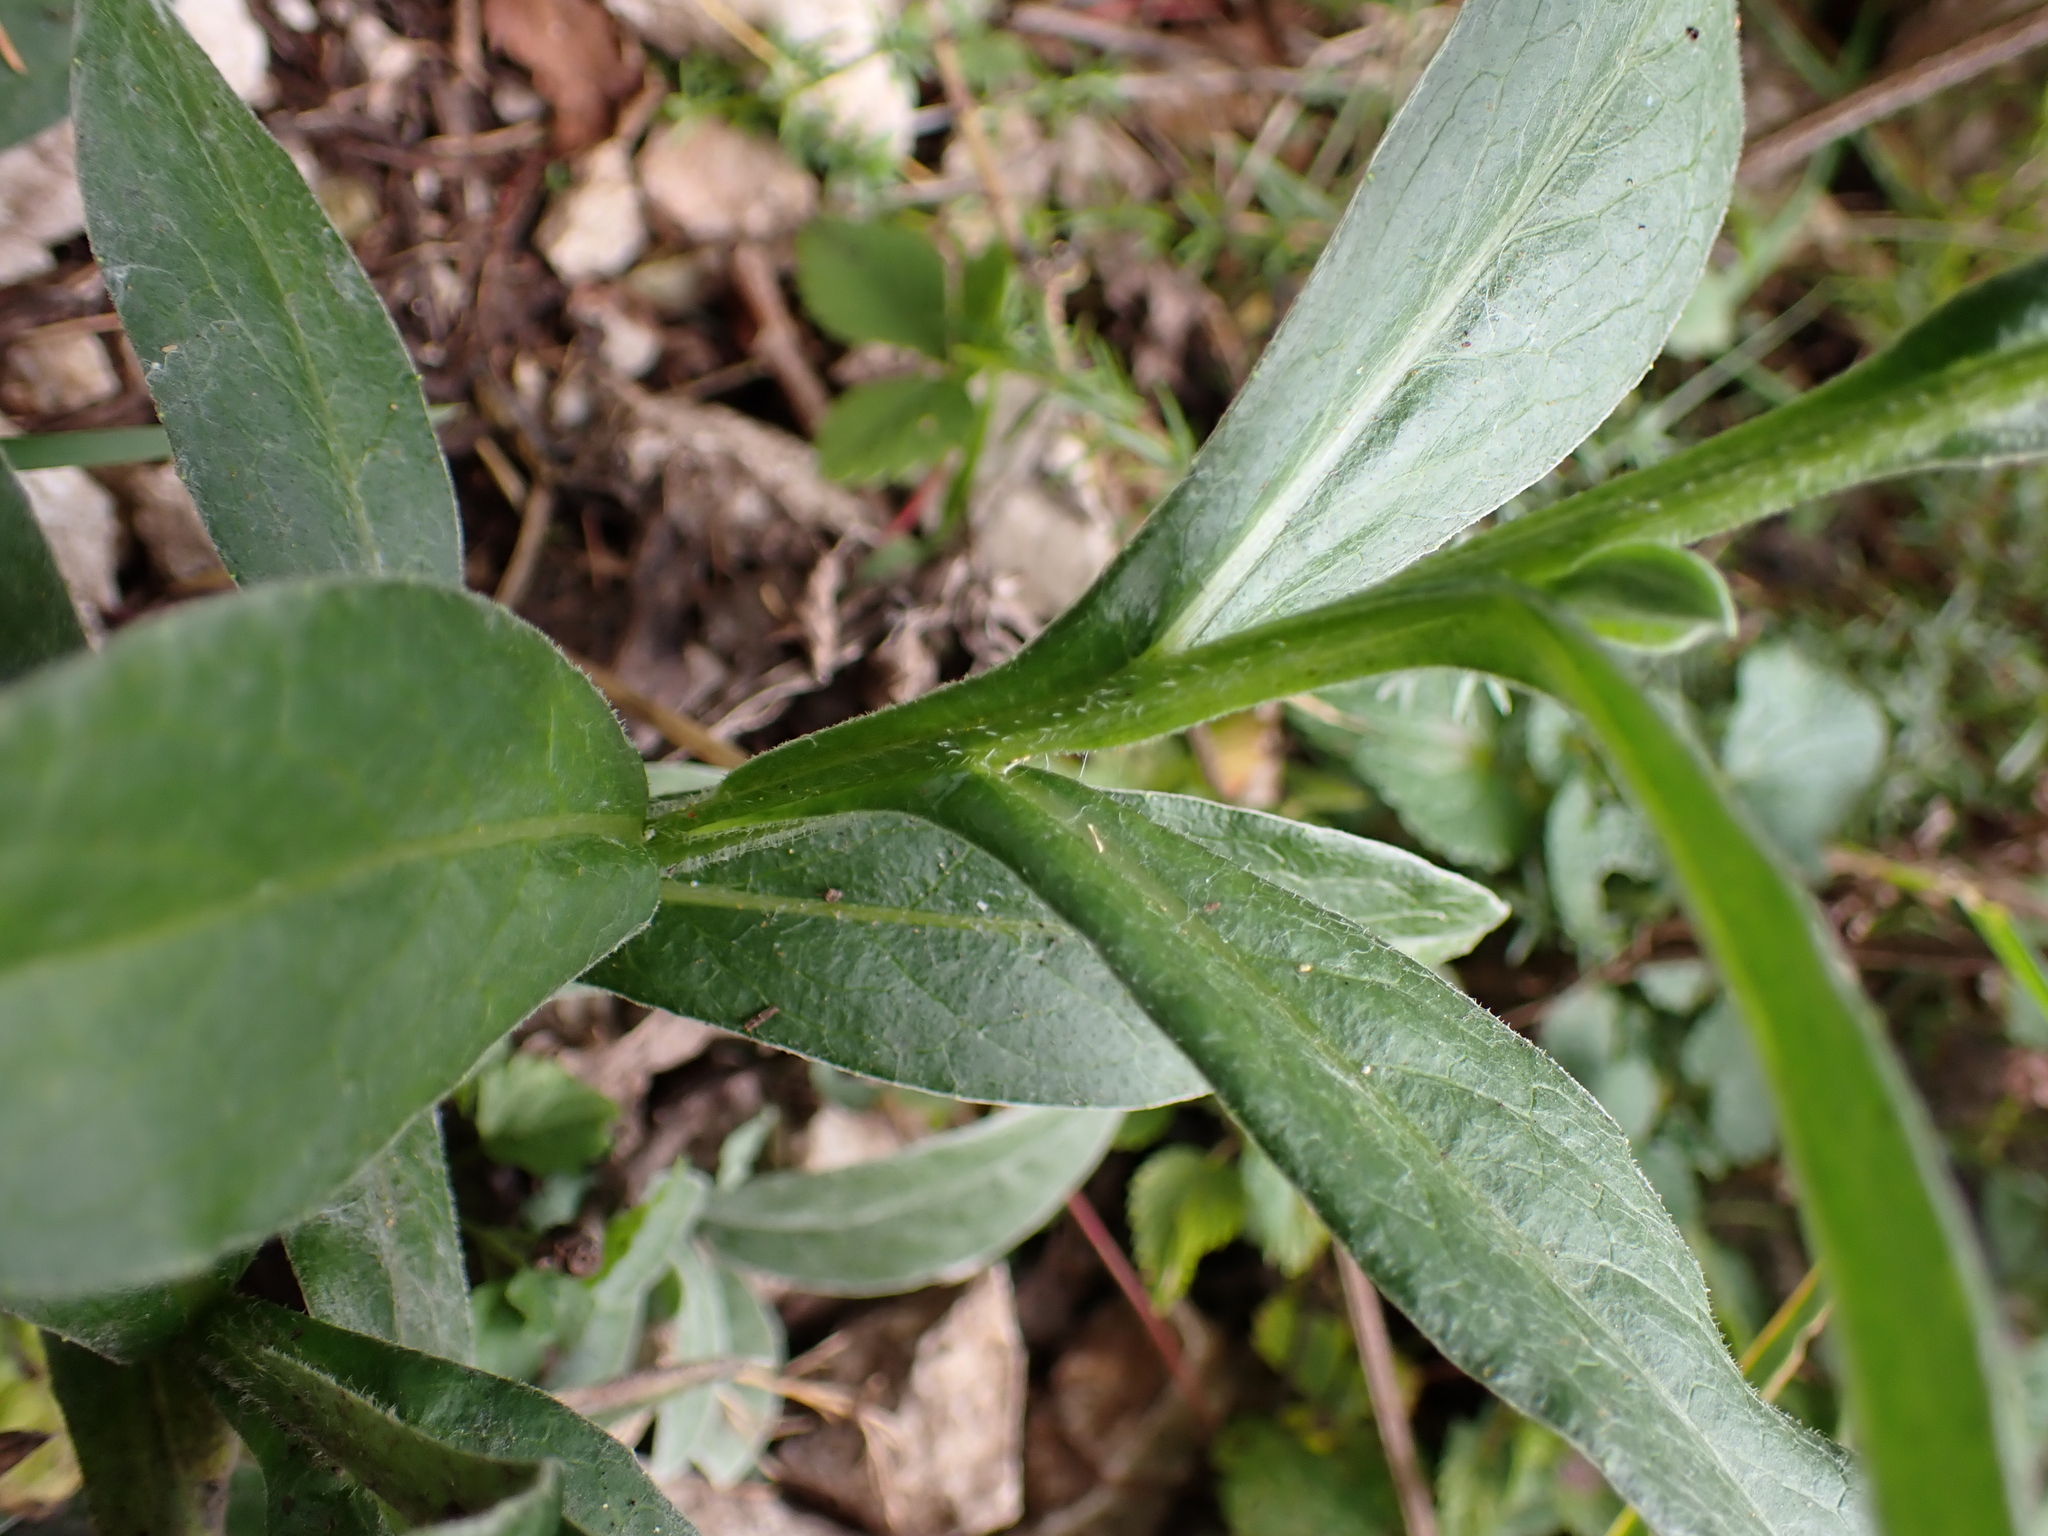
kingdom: Plantae
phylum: Tracheophyta
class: Magnoliopsida
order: Asterales
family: Asteraceae
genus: Centaurea
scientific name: Centaurea montana
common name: Perennial cornflower
